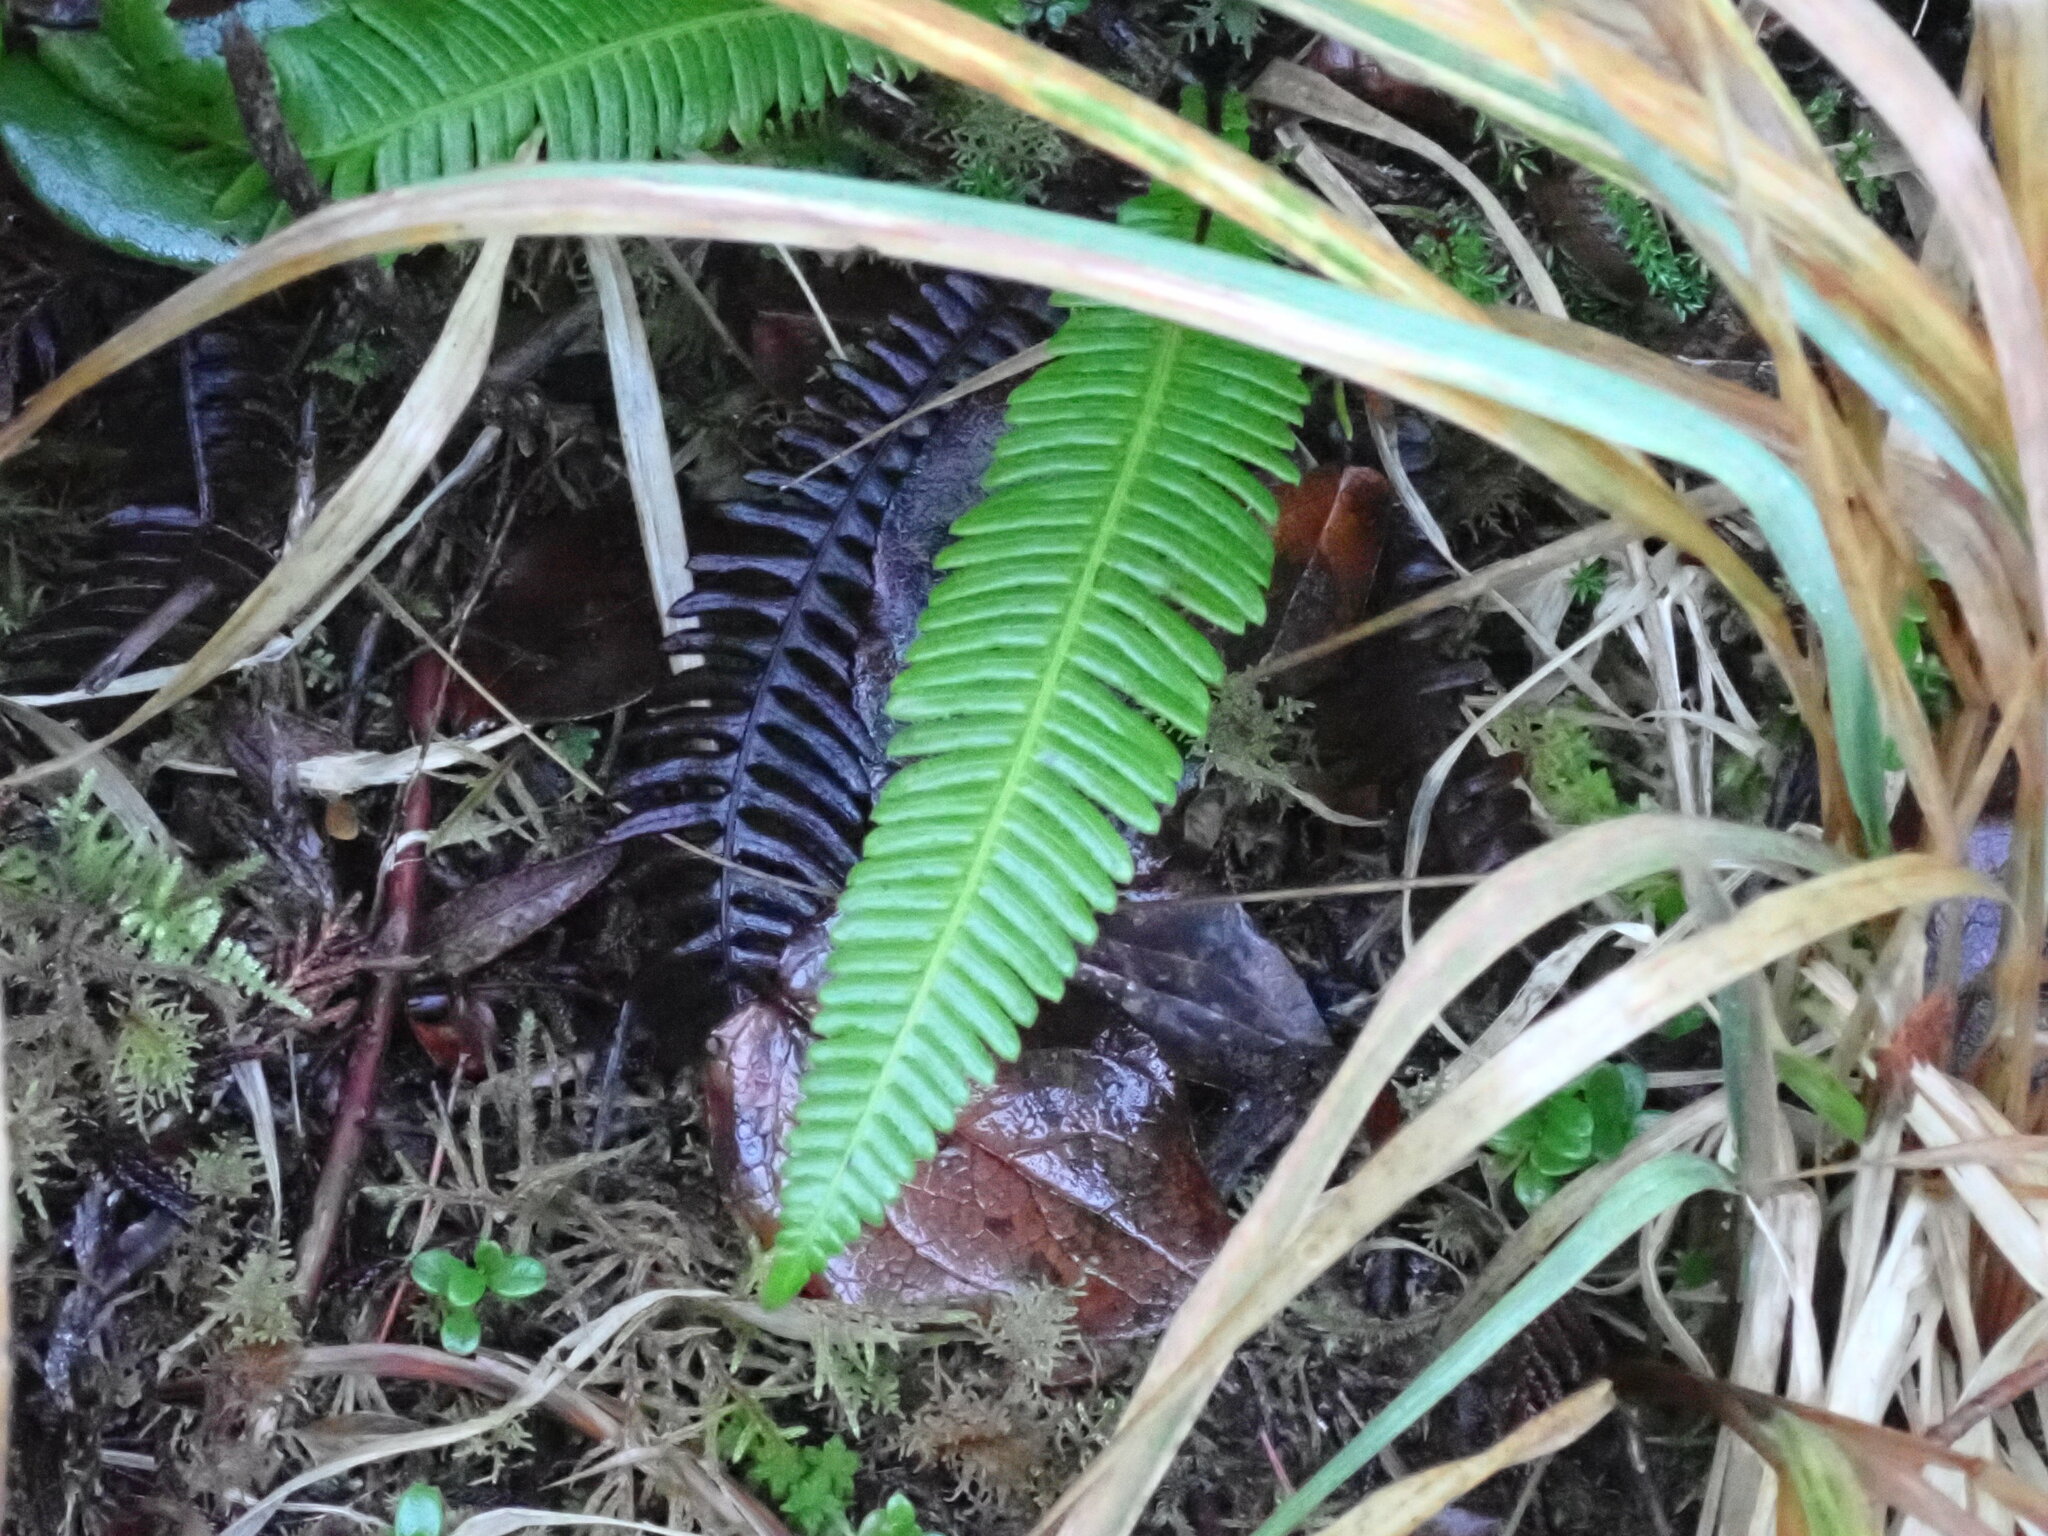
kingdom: Plantae
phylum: Tracheophyta
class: Polypodiopsida
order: Polypodiales
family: Blechnaceae
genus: Struthiopteris
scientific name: Struthiopteris spicant
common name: Deer fern
